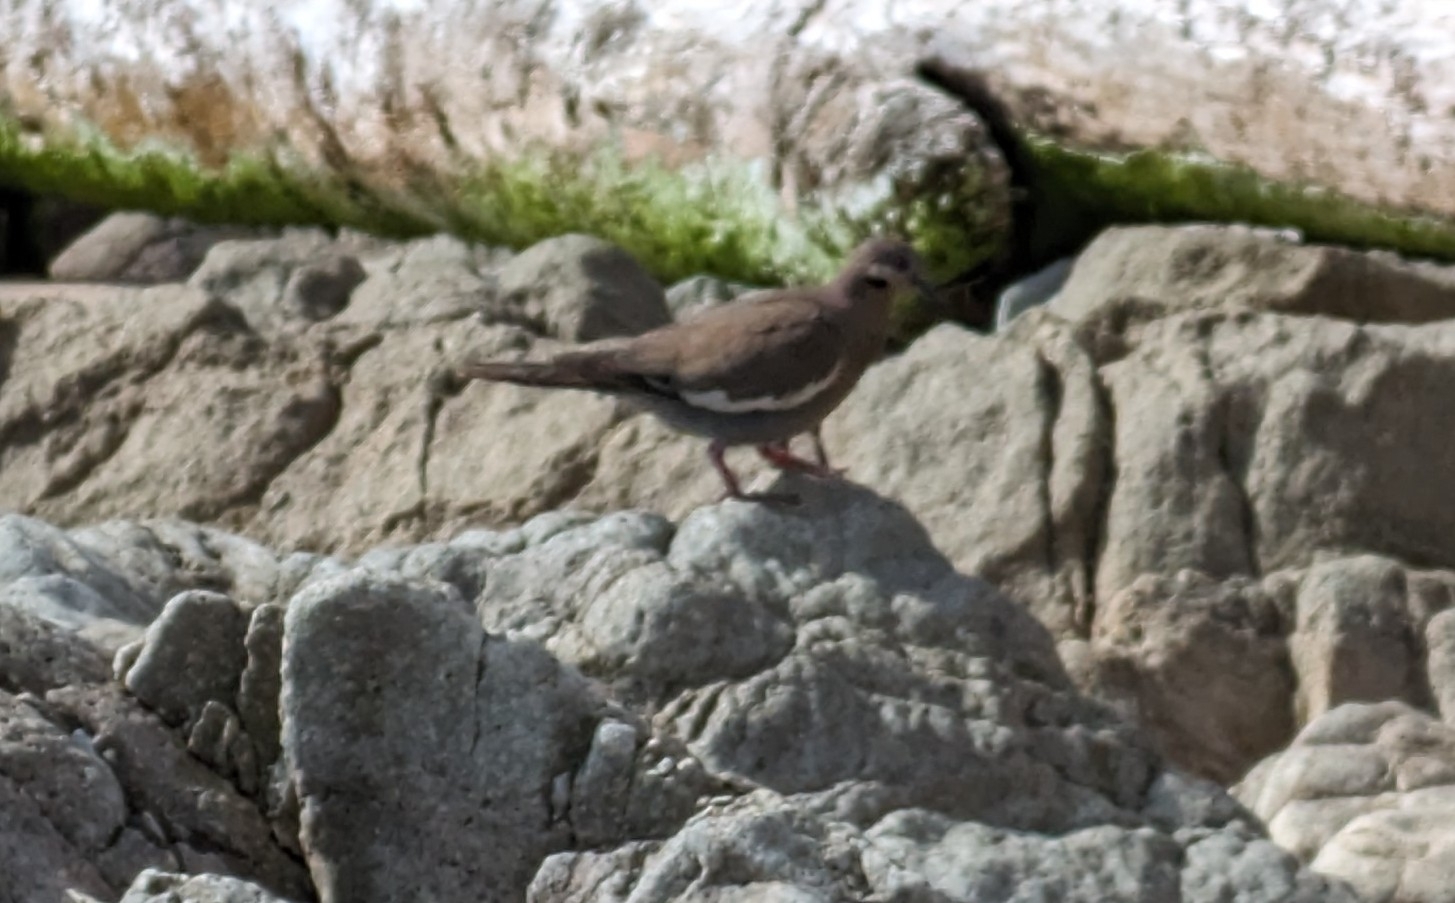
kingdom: Animalia
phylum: Chordata
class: Aves
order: Columbiformes
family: Columbidae
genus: Zenaida
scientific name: Zenaida asiatica
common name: White-winged dove
